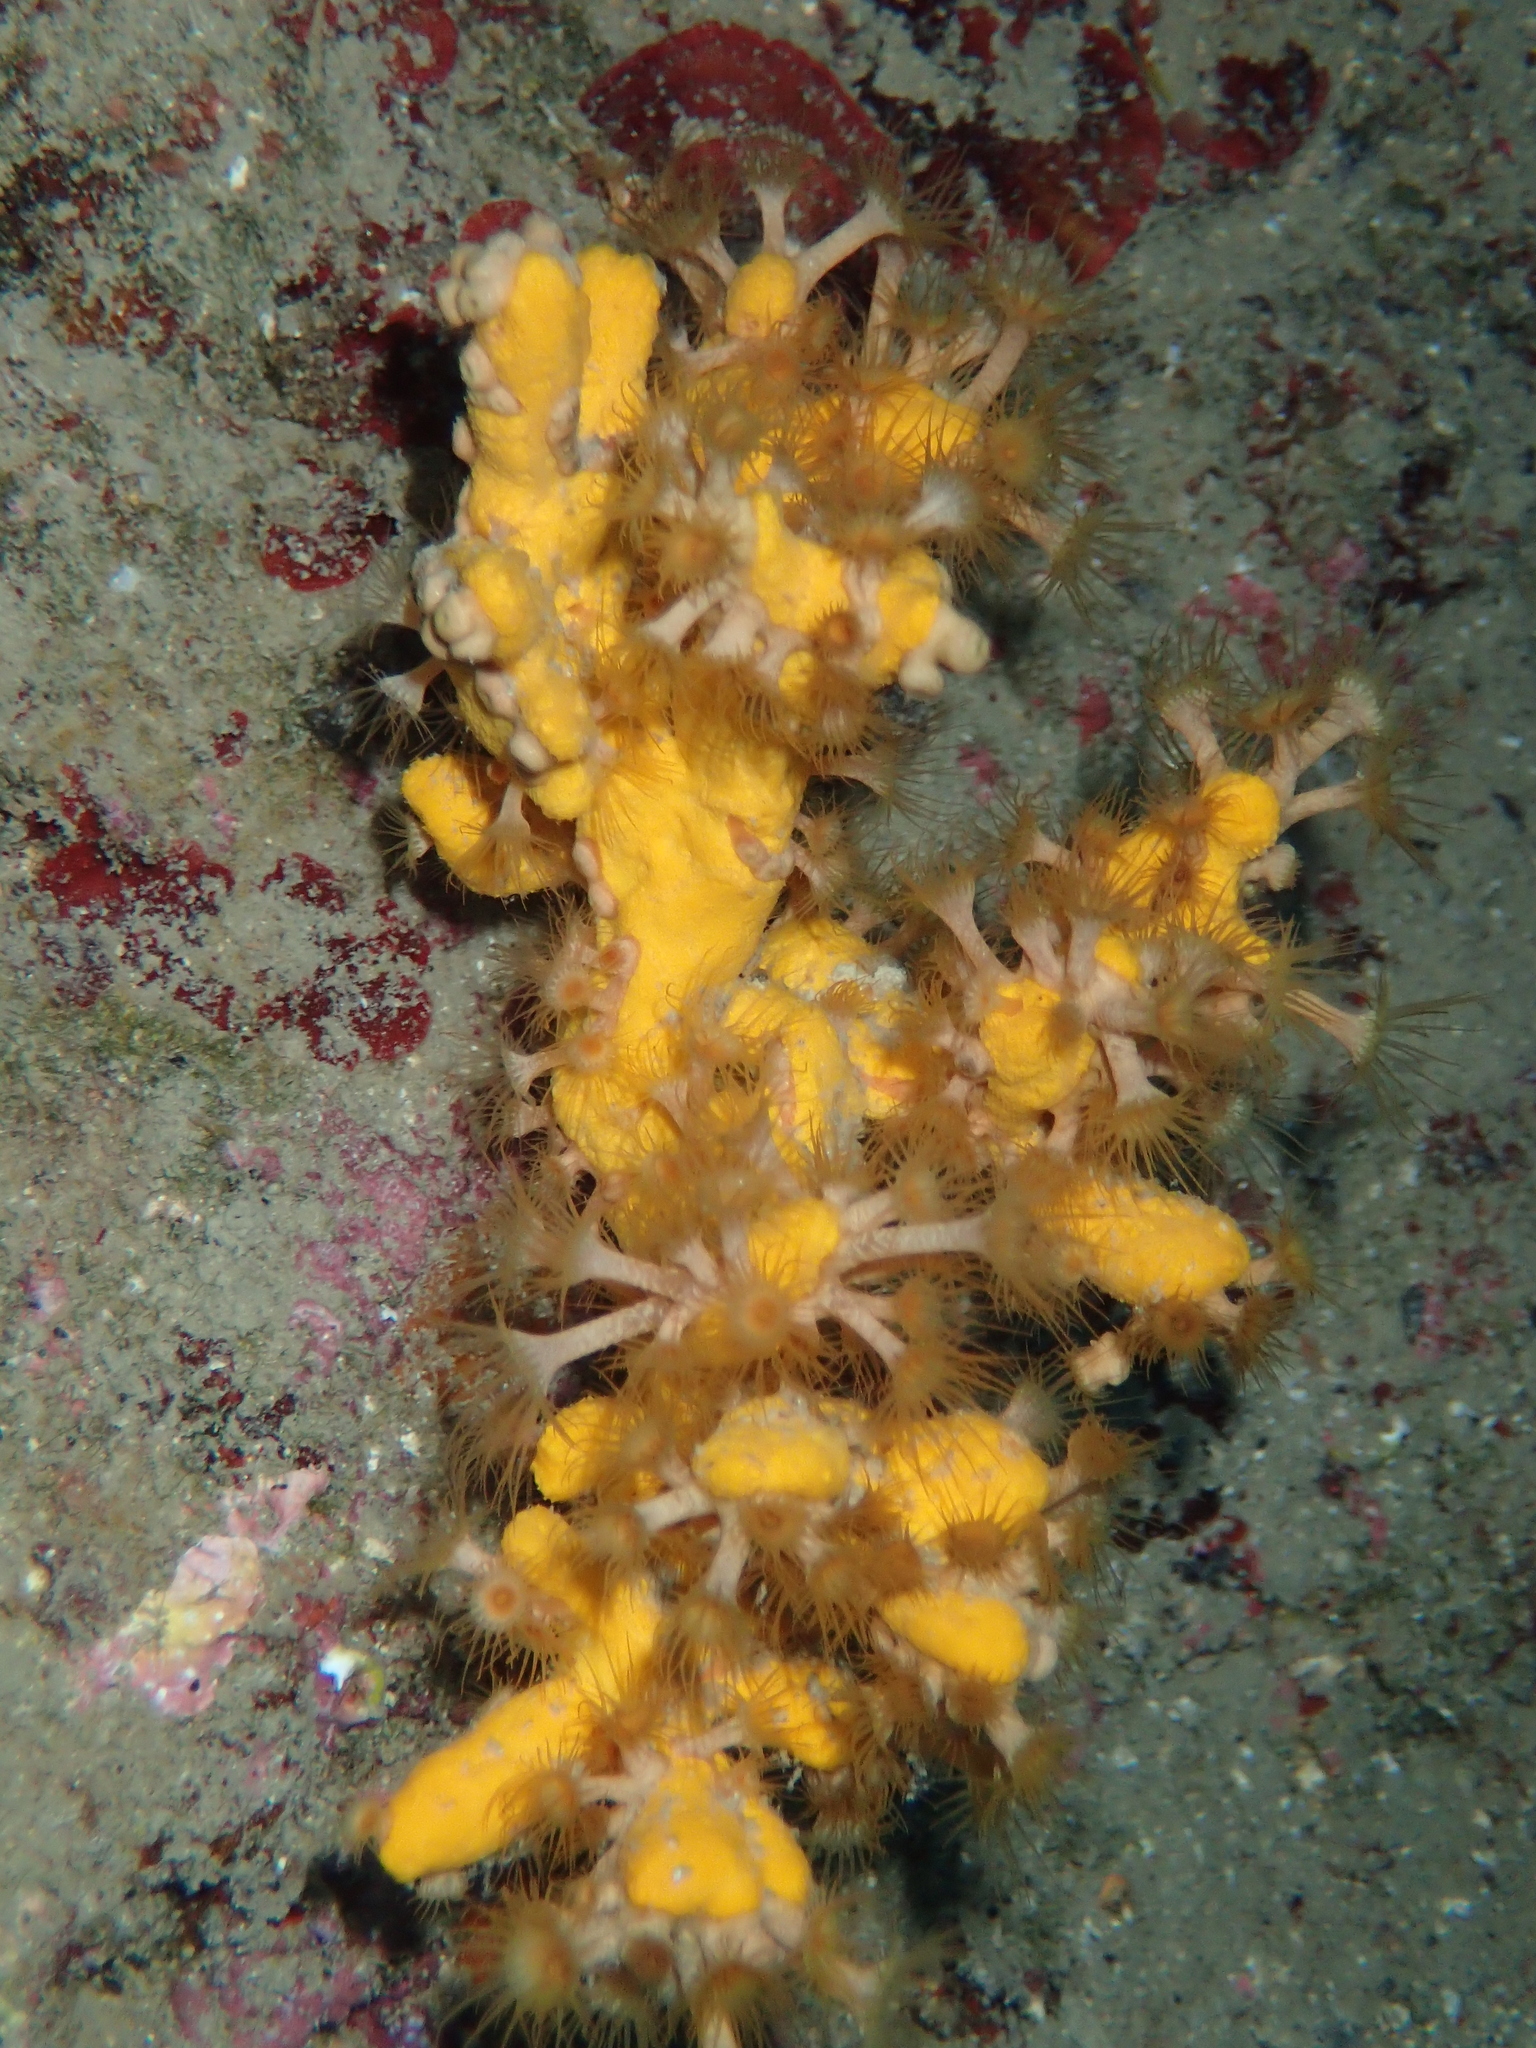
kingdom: Animalia
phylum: Cnidaria
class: Anthozoa
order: Zoantharia
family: Parazoanthidae
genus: Parazoanthus
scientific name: Parazoanthus axinellae
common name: Yellow cluster anemone
